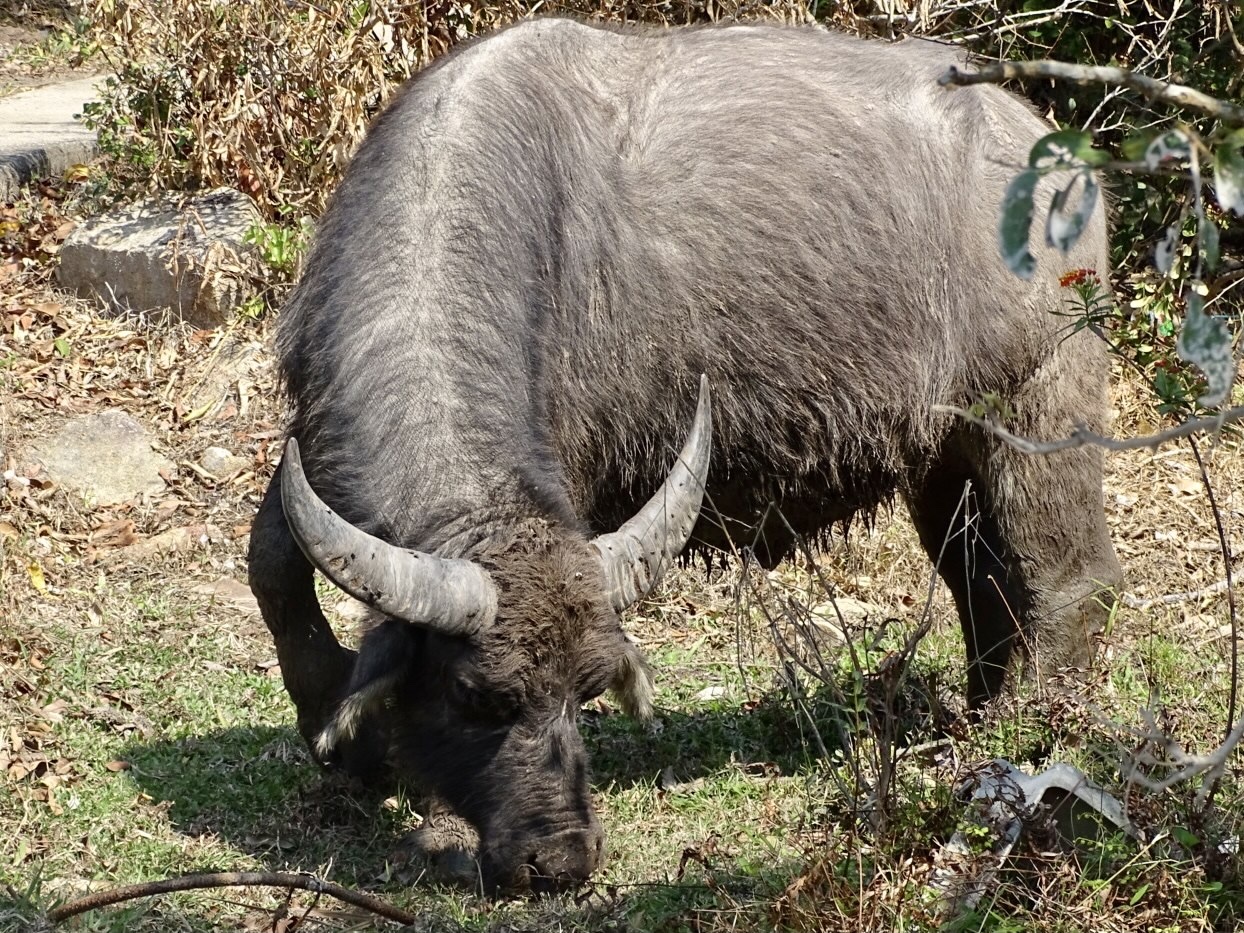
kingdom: Animalia
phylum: Chordata
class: Mammalia
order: Artiodactyla
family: Bovidae
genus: Bubalus
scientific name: Bubalus bubalis
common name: Water buffalo
